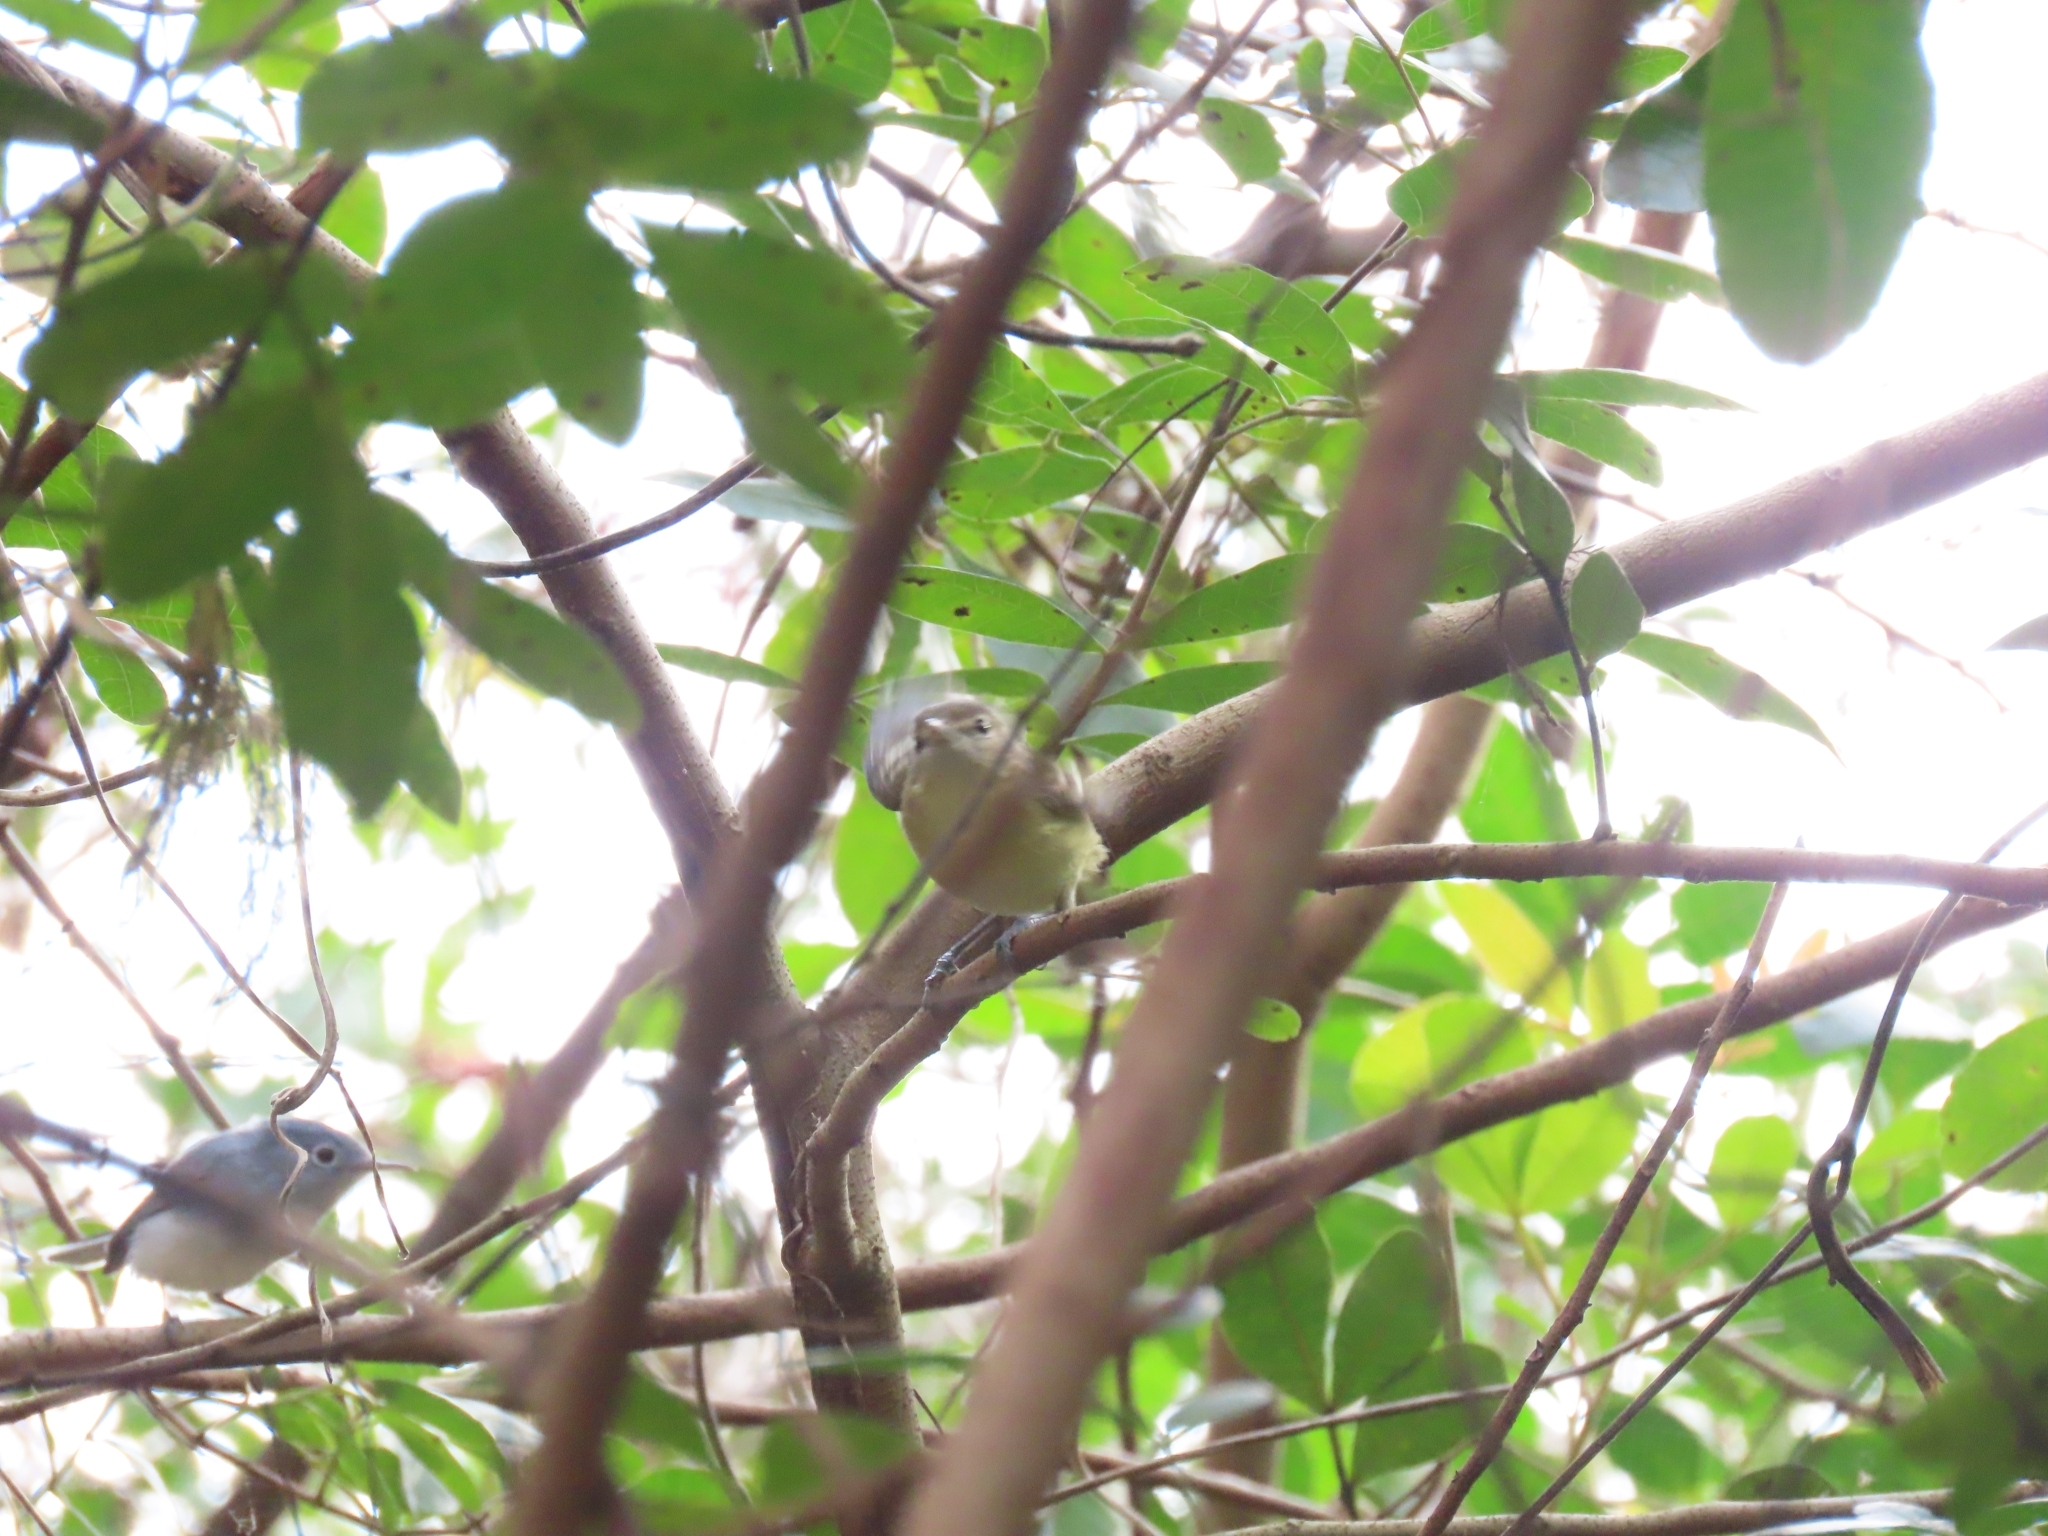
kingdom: Animalia
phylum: Chordata
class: Aves
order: Passeriformes
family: Vireonidae
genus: Vireo
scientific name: Vireo bellii
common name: Bell's vireo
